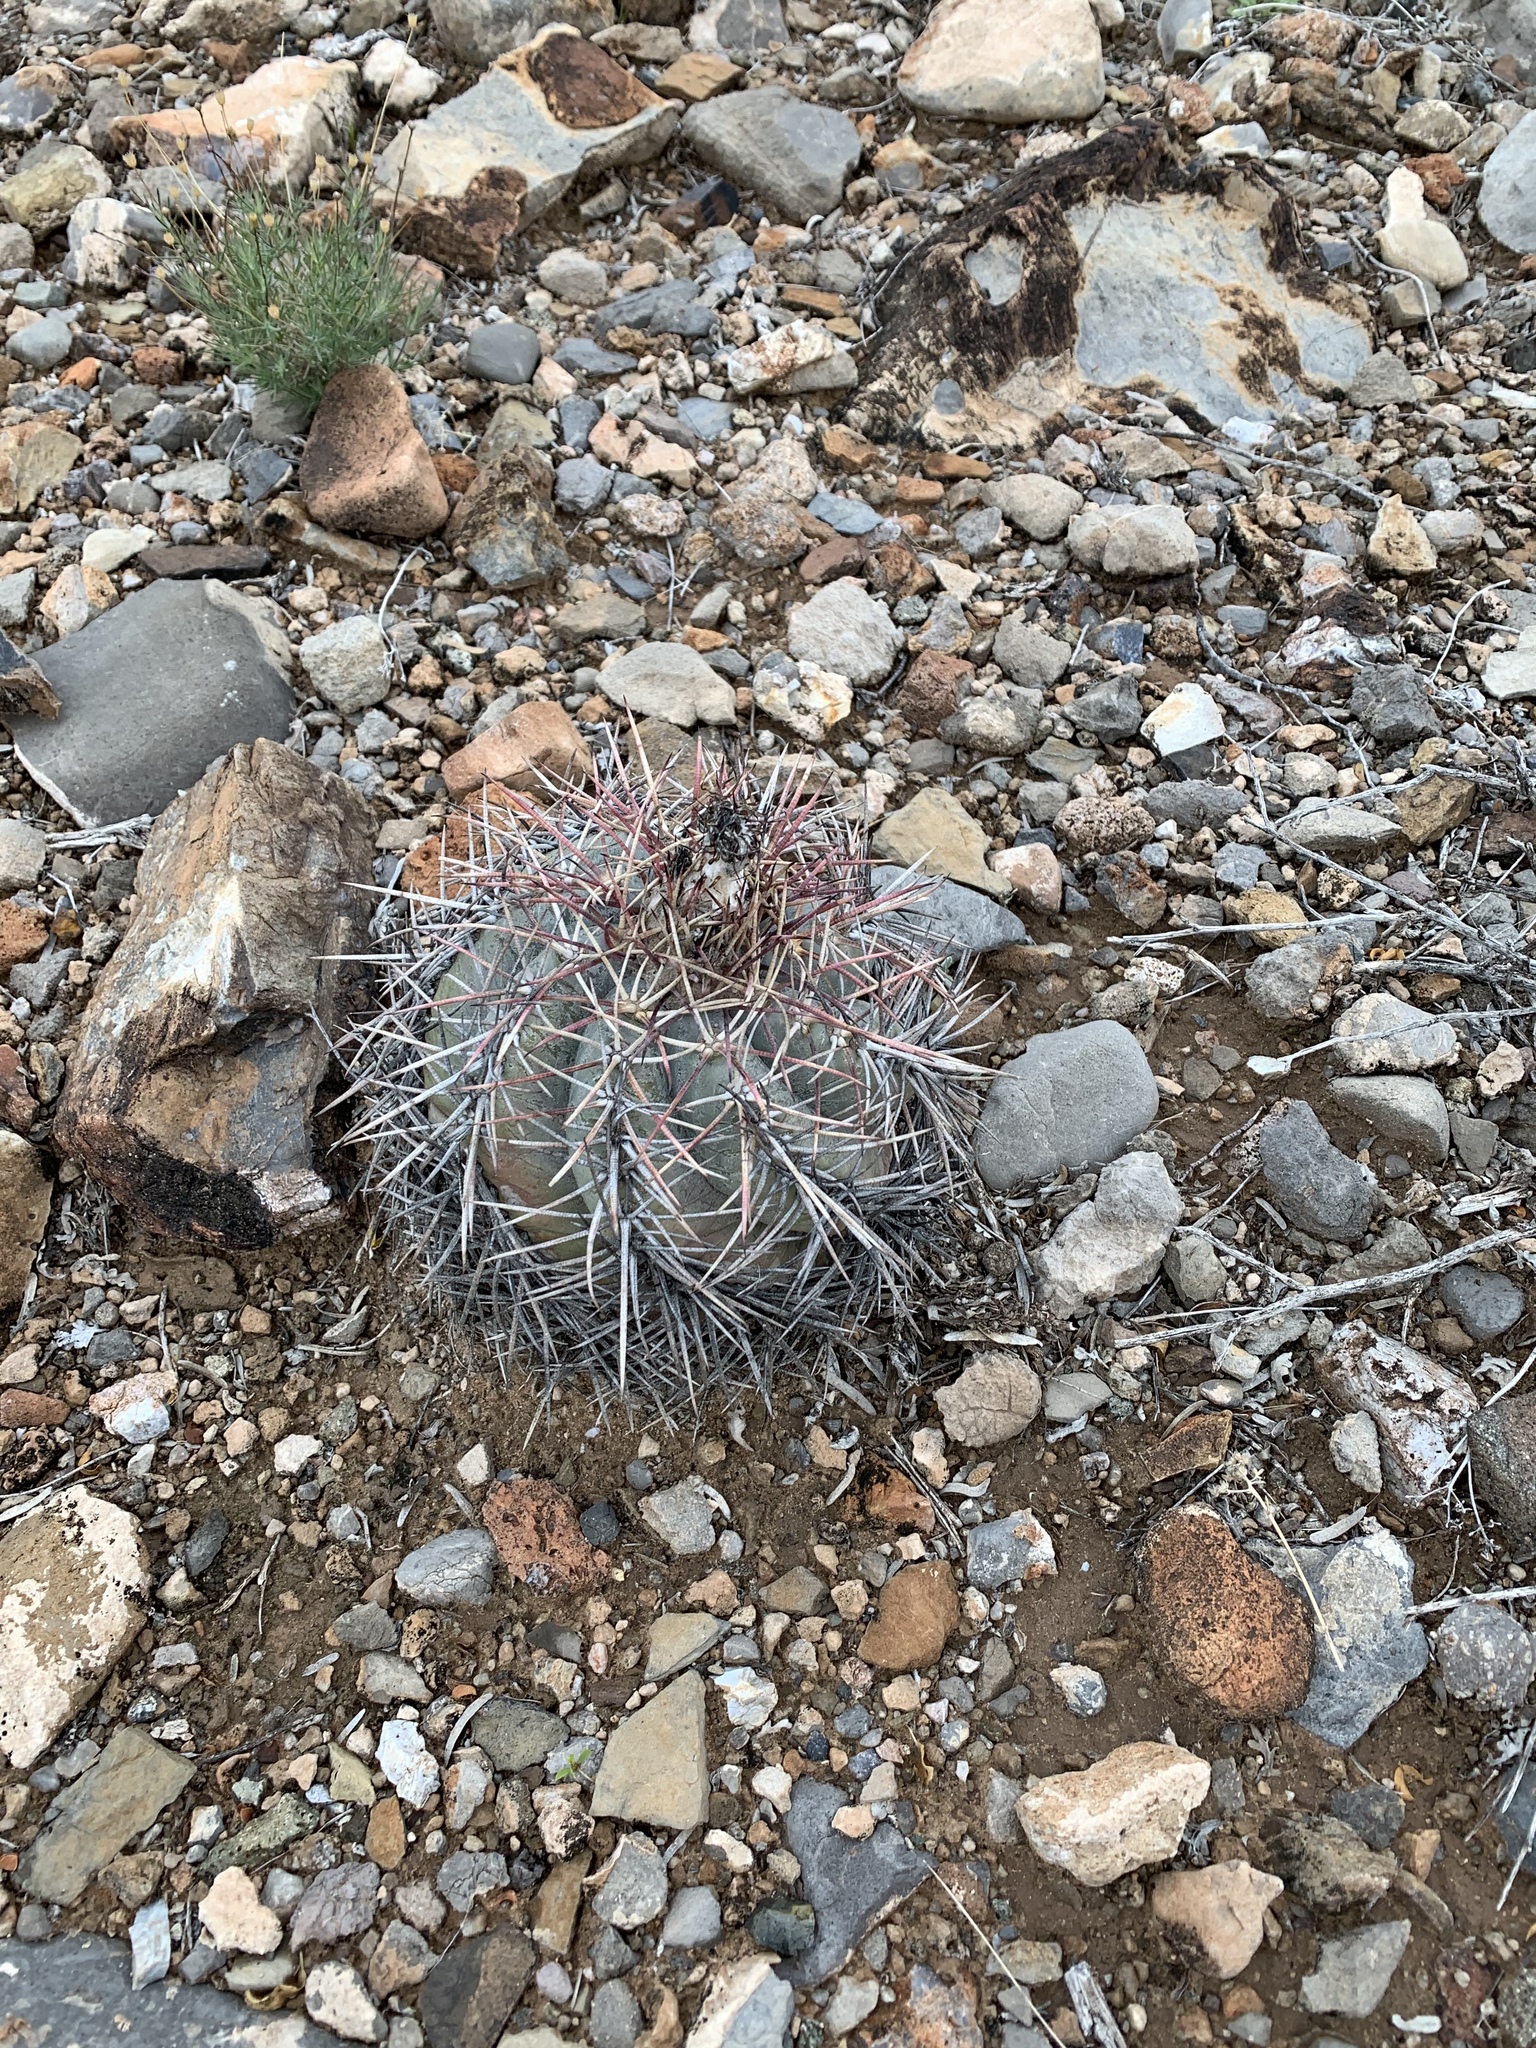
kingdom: Plantae
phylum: Tracheophyta
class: Magnoliopsida
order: Caryophyllales
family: Cactaceae
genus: Echinocactus
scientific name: Echinocactus horizonthalonius
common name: Devilshead
